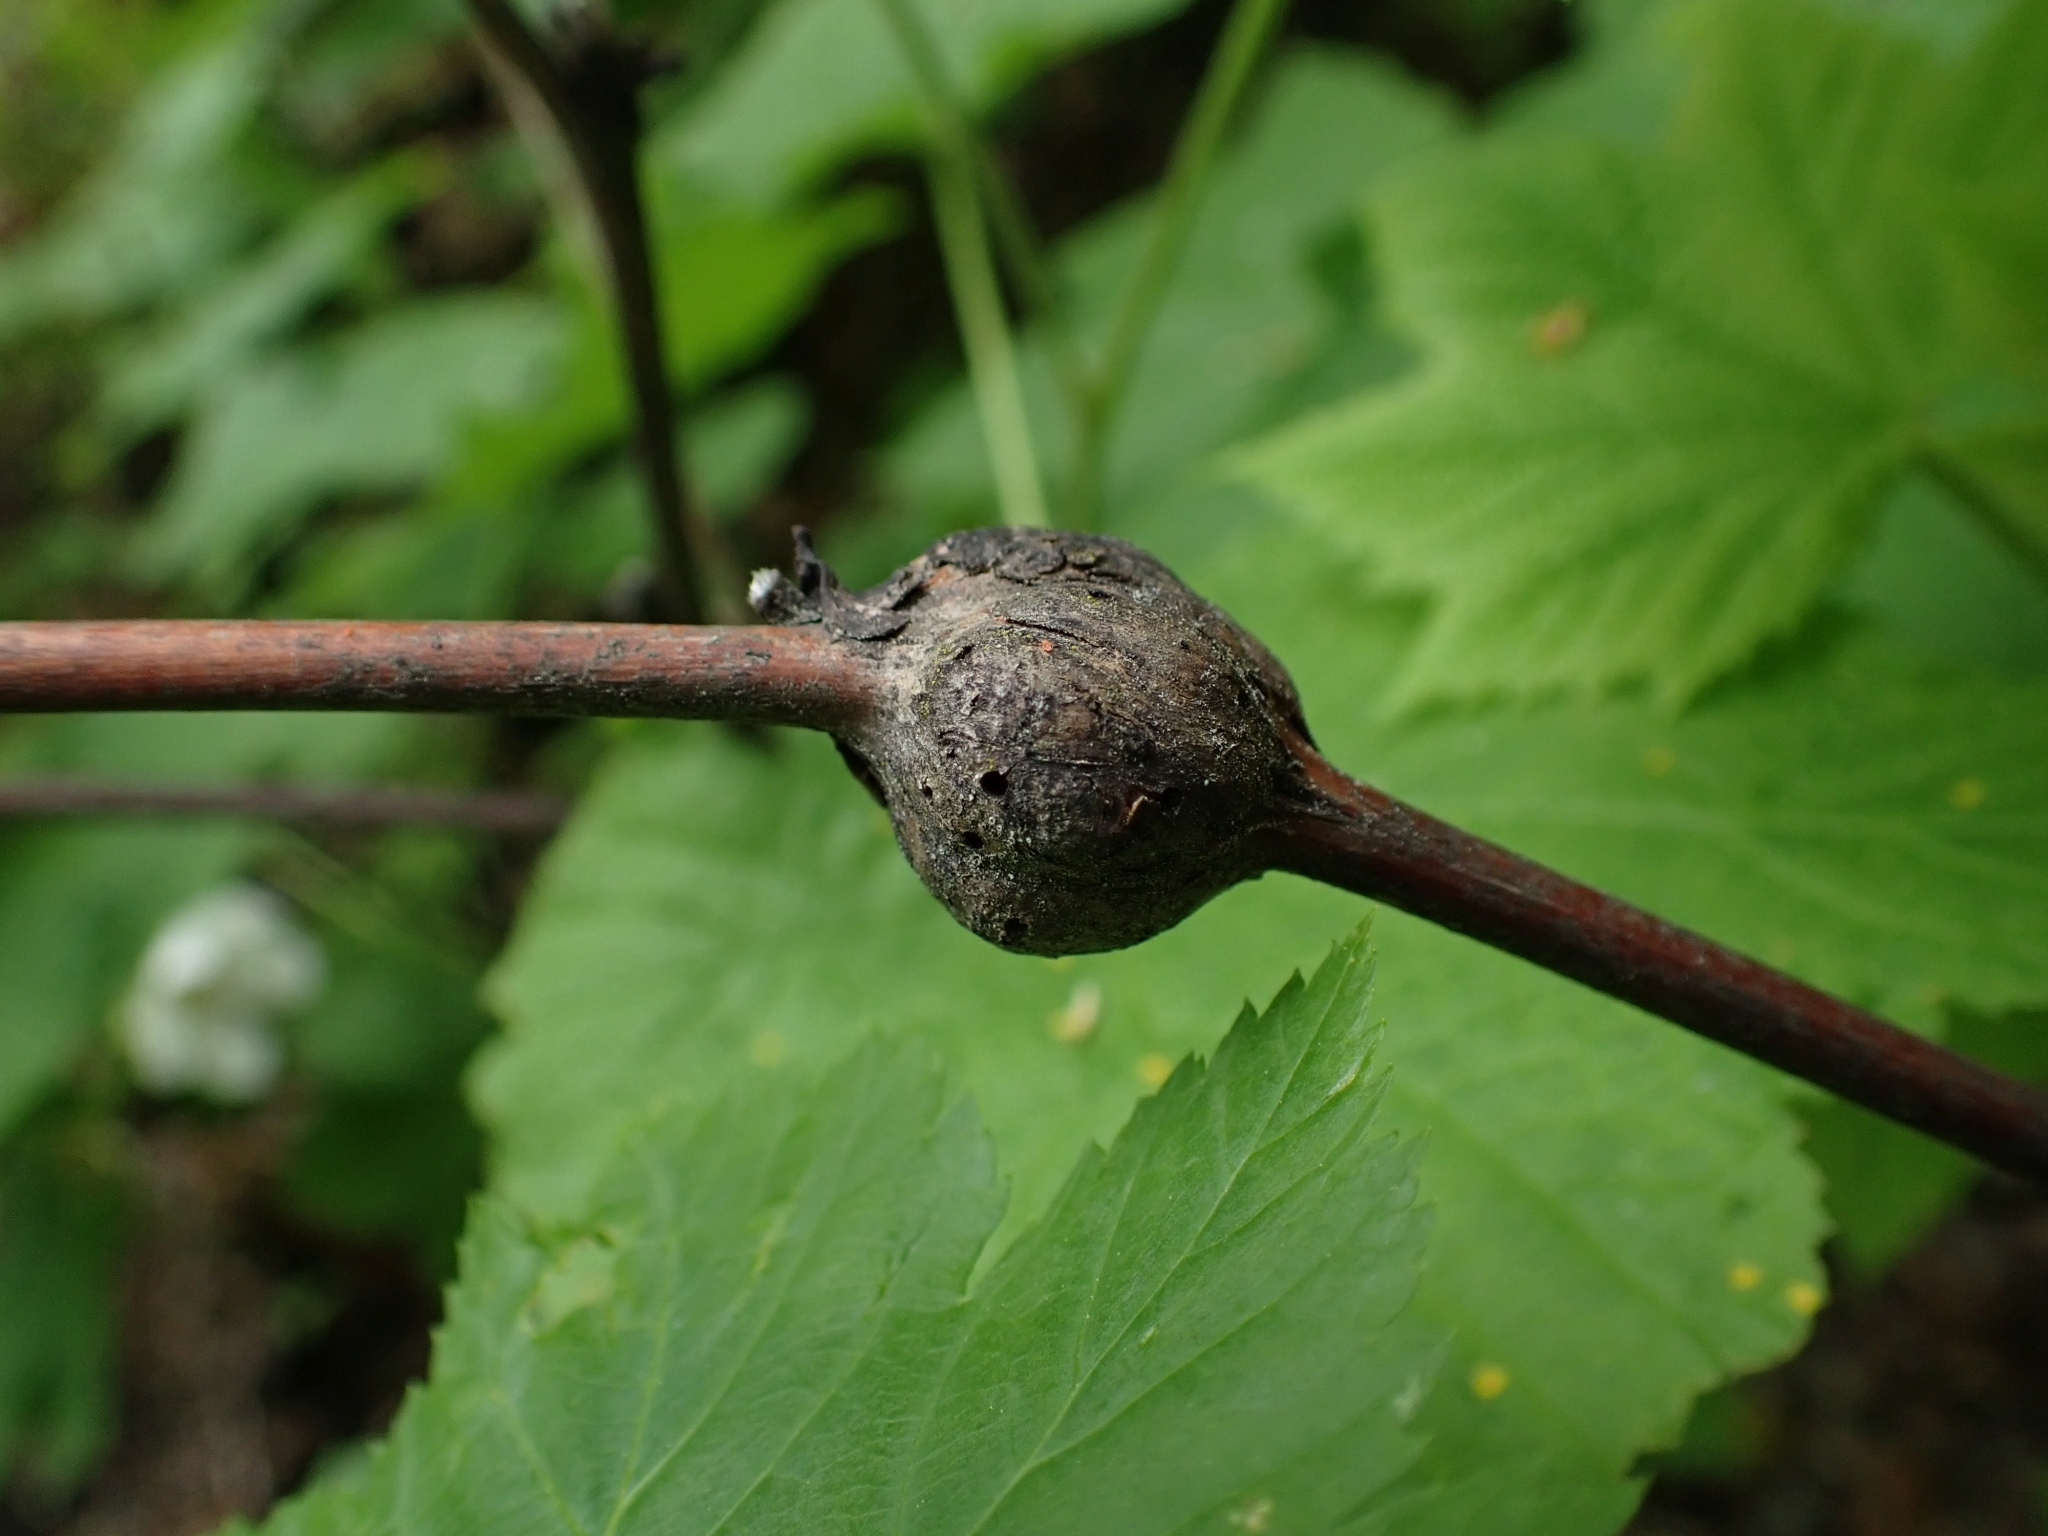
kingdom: Animalia
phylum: Arthropoda
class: Insecta
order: Hymenoptera
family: Cynipidae
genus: Diastrophus
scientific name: Diastrophus
